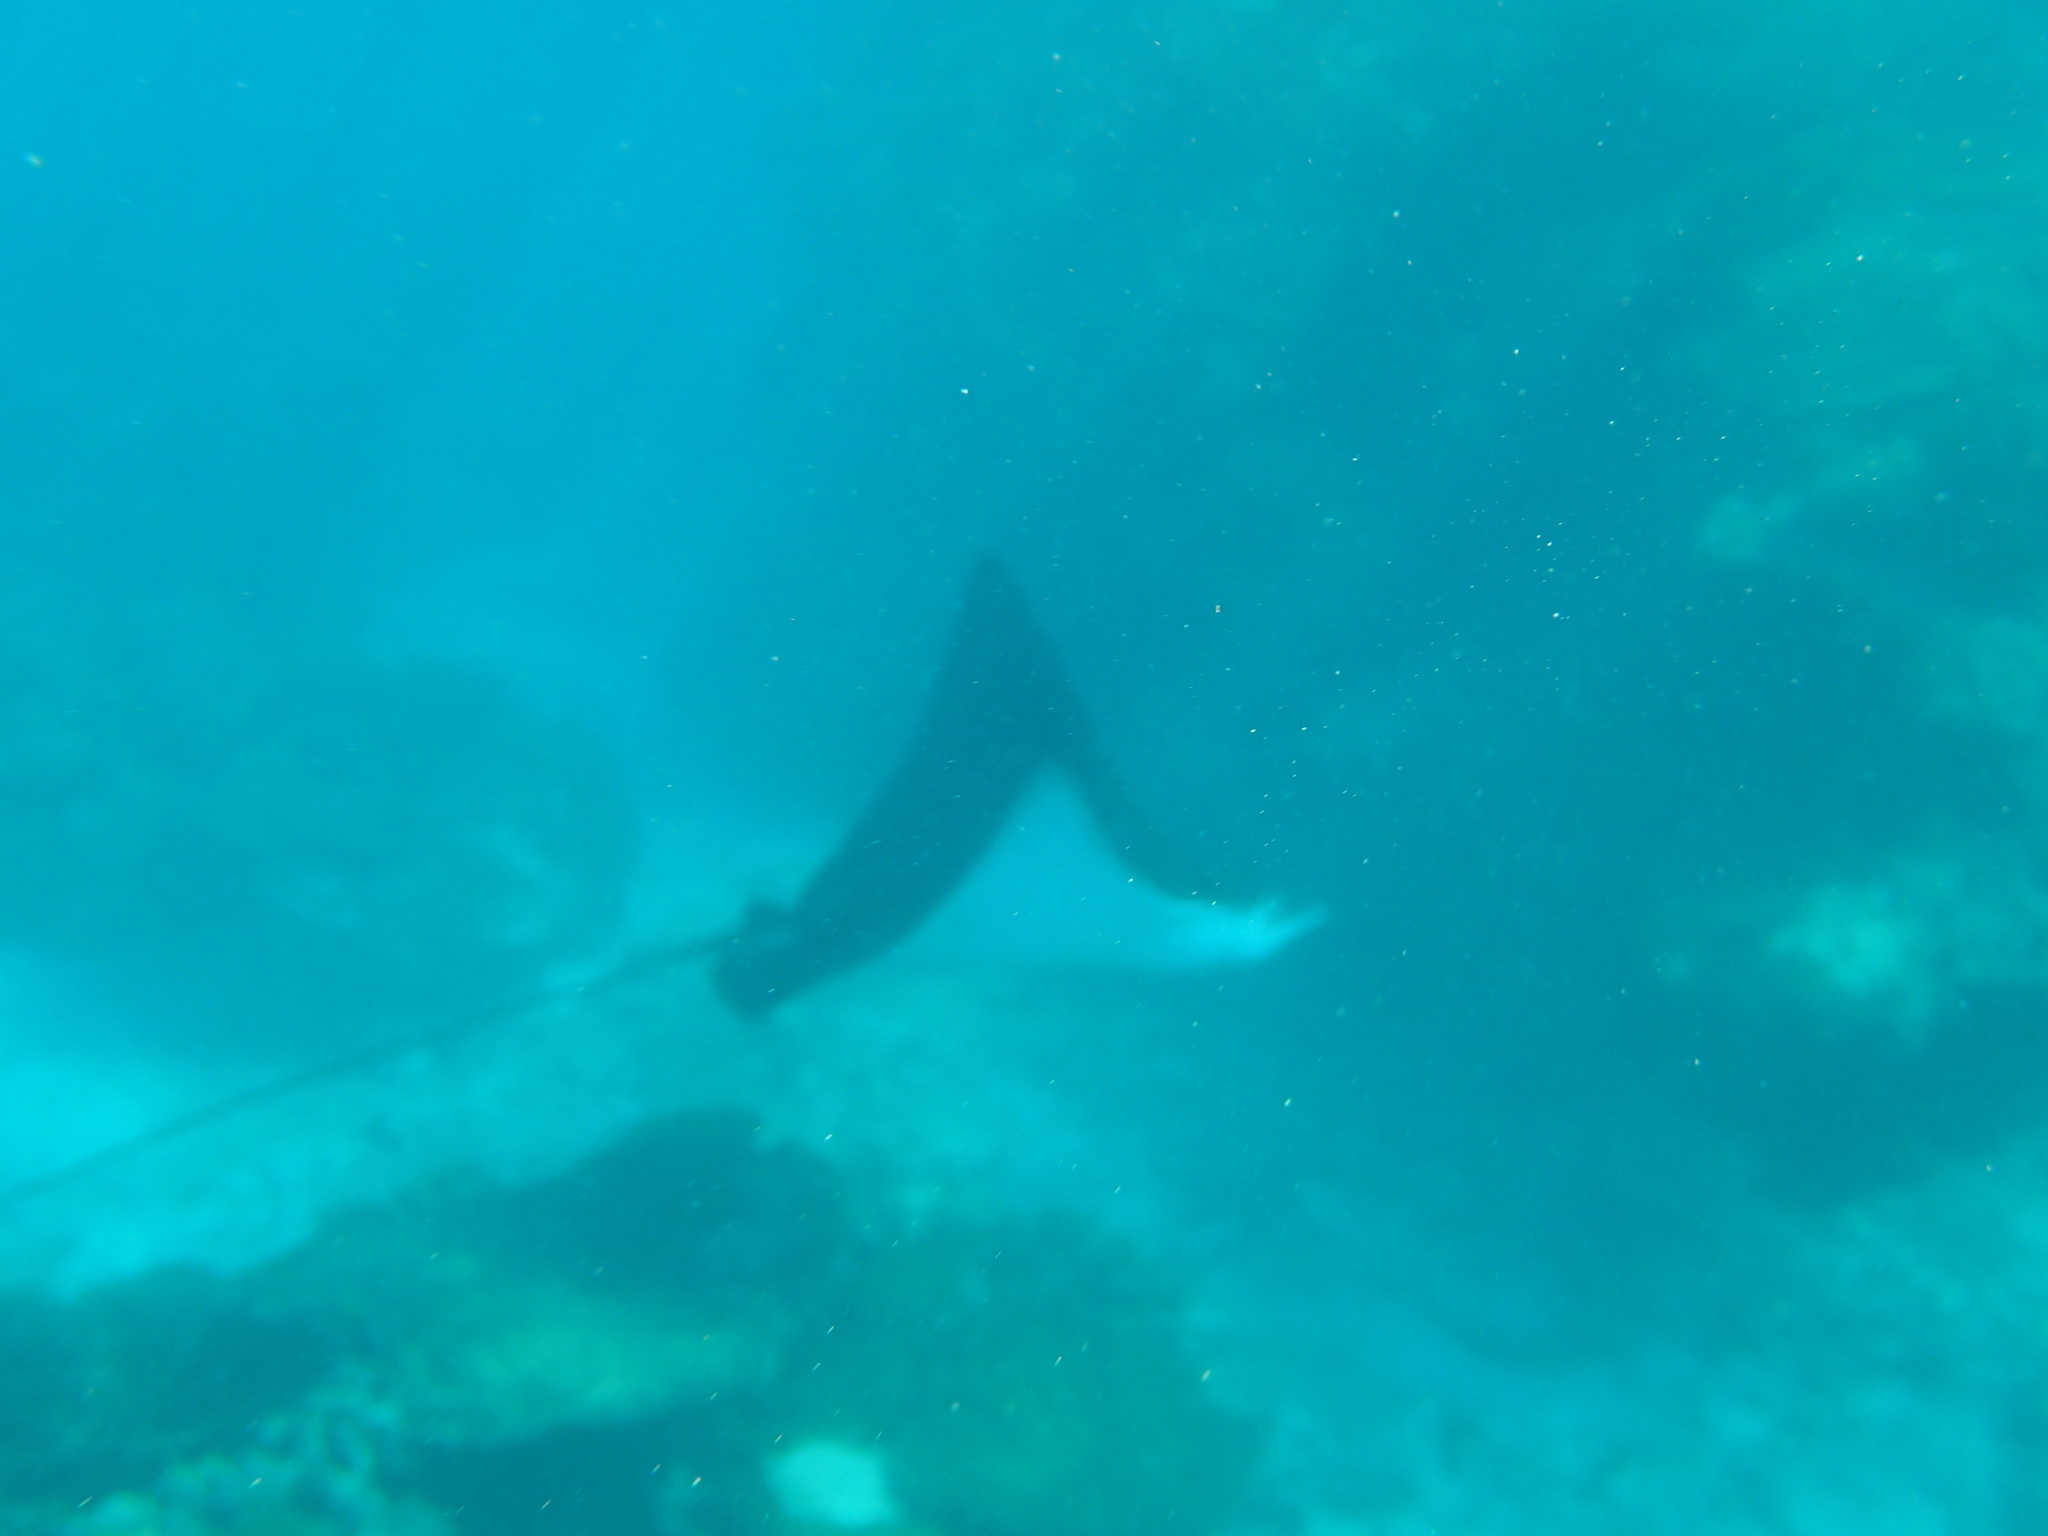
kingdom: Animalia
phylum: Chordata
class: Elasmobranchii
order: Myliobatiformes
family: Myliobatidae
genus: Aetobatus
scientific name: Aetobatus ocellatus
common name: Ocellated eagle ray
